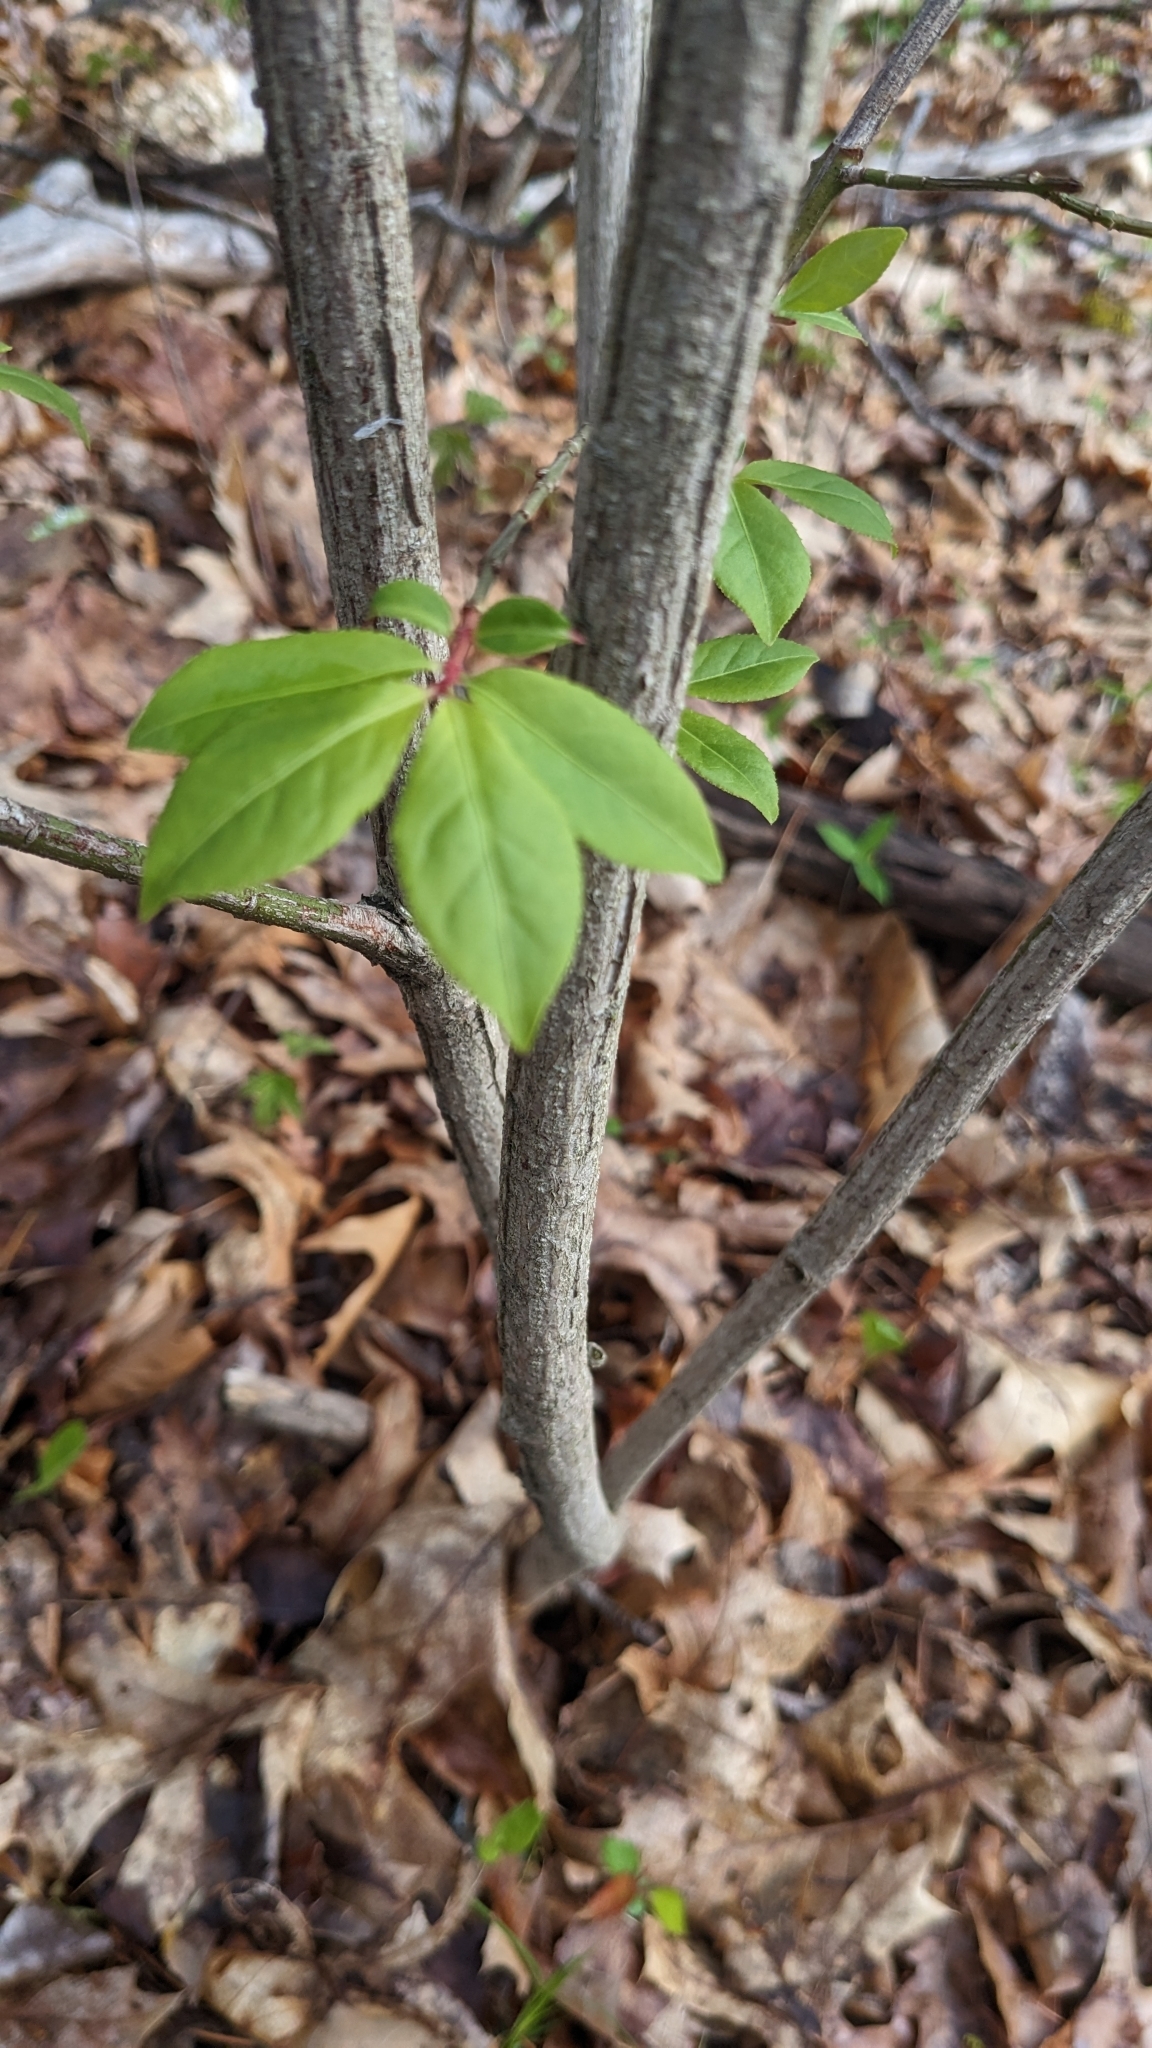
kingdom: Plantae
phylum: Tracheophyta
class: Magnoliopsida
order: Celastrales
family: Celastraceae
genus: Euonymus
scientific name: Euonymus alatus
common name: Winged euonymus
